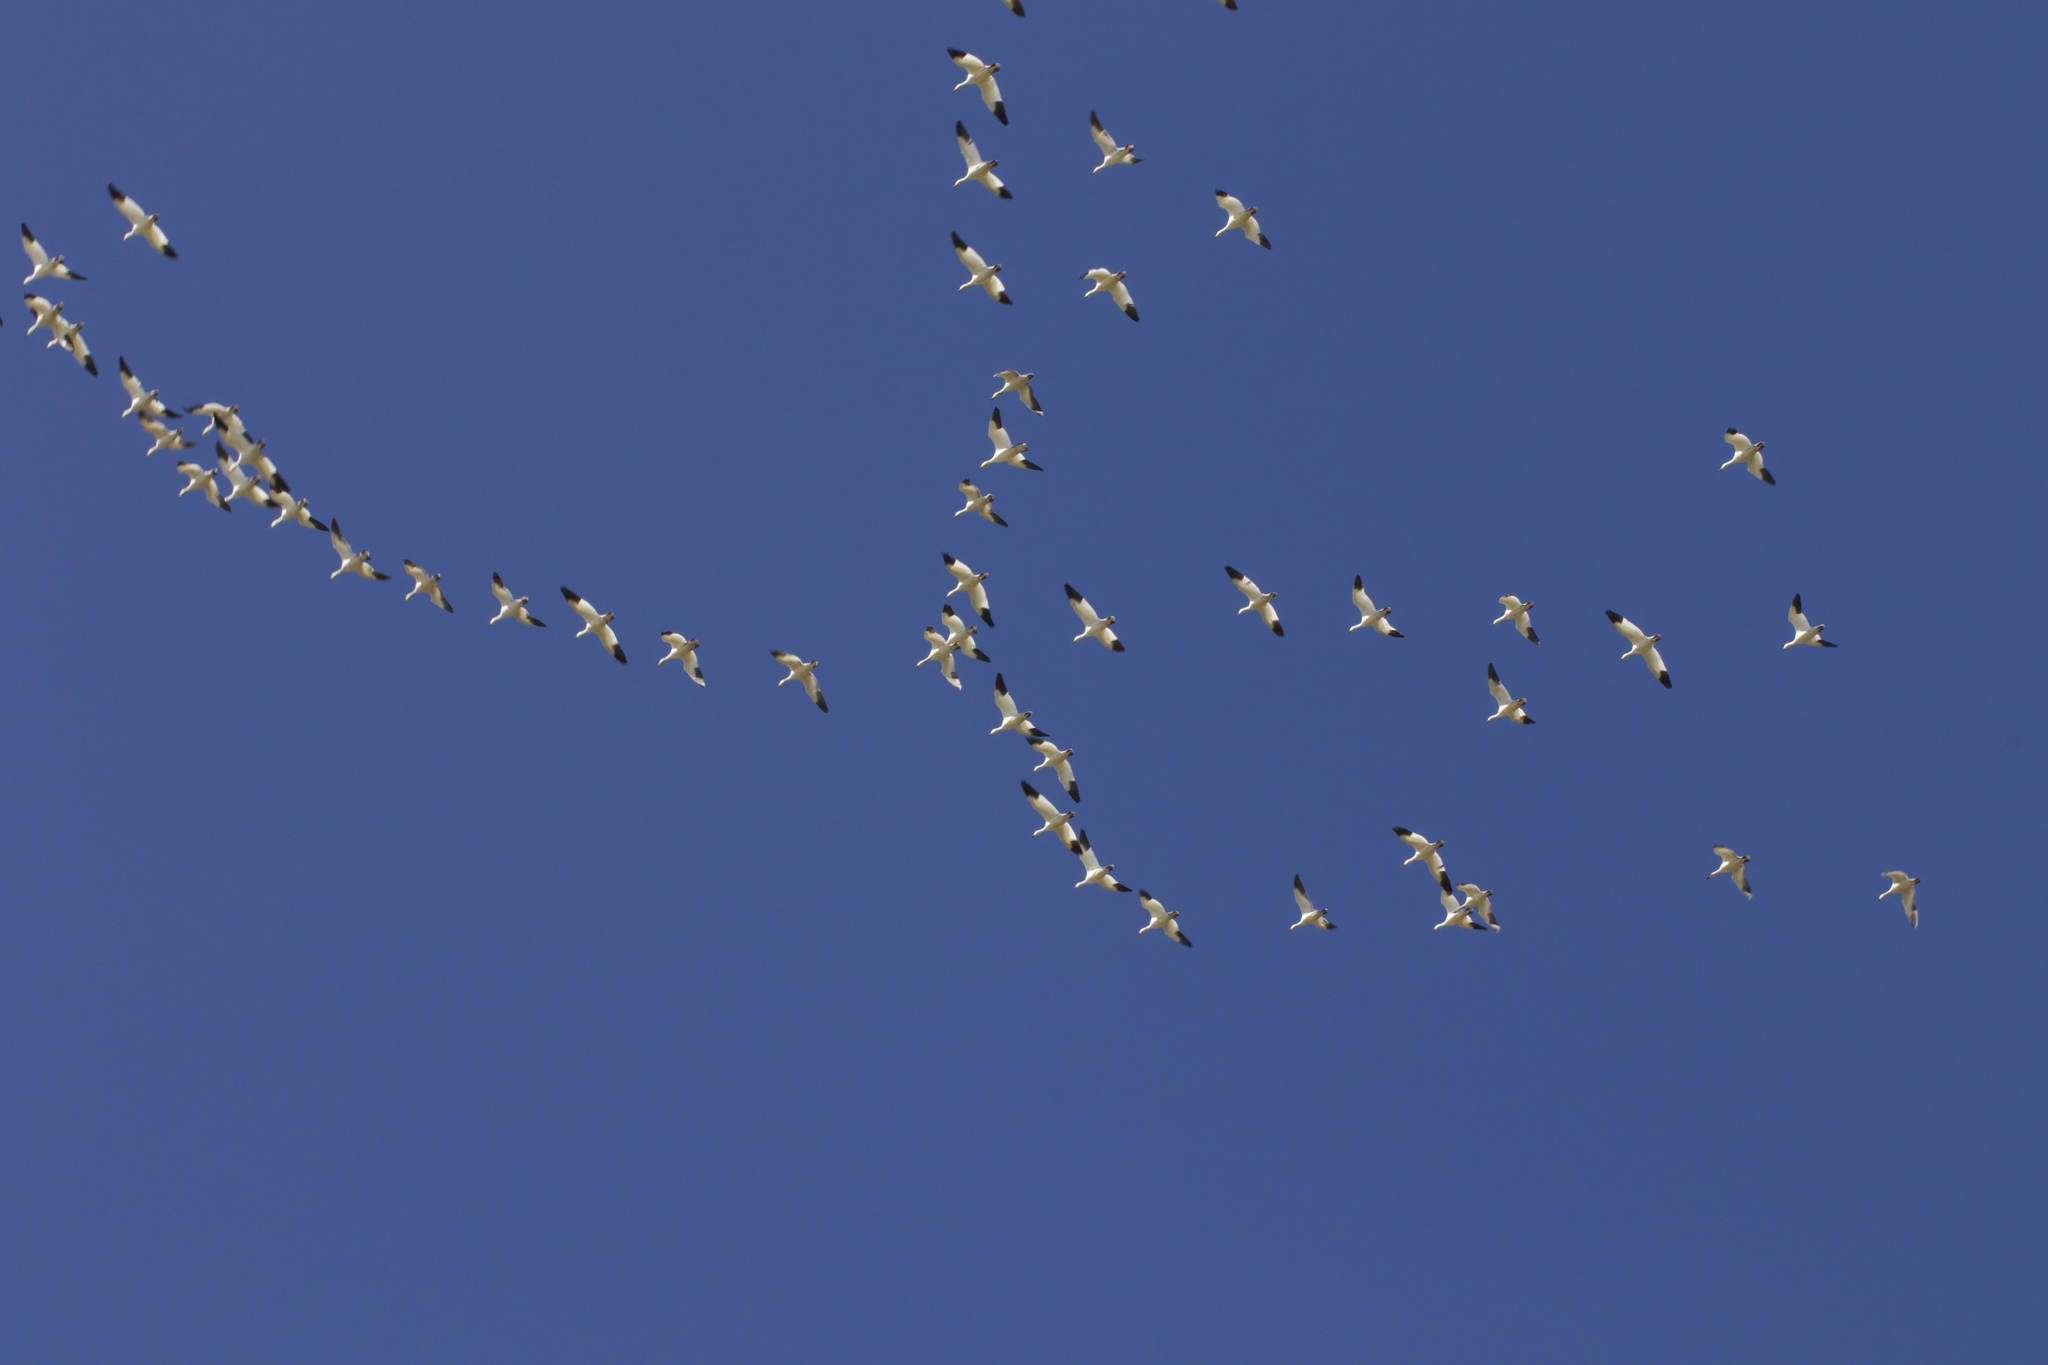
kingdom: Animalia
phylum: Chordata
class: Aves
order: Anseriformes
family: Anatidae
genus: Anser
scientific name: Anser caerulescens
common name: Snow goose
